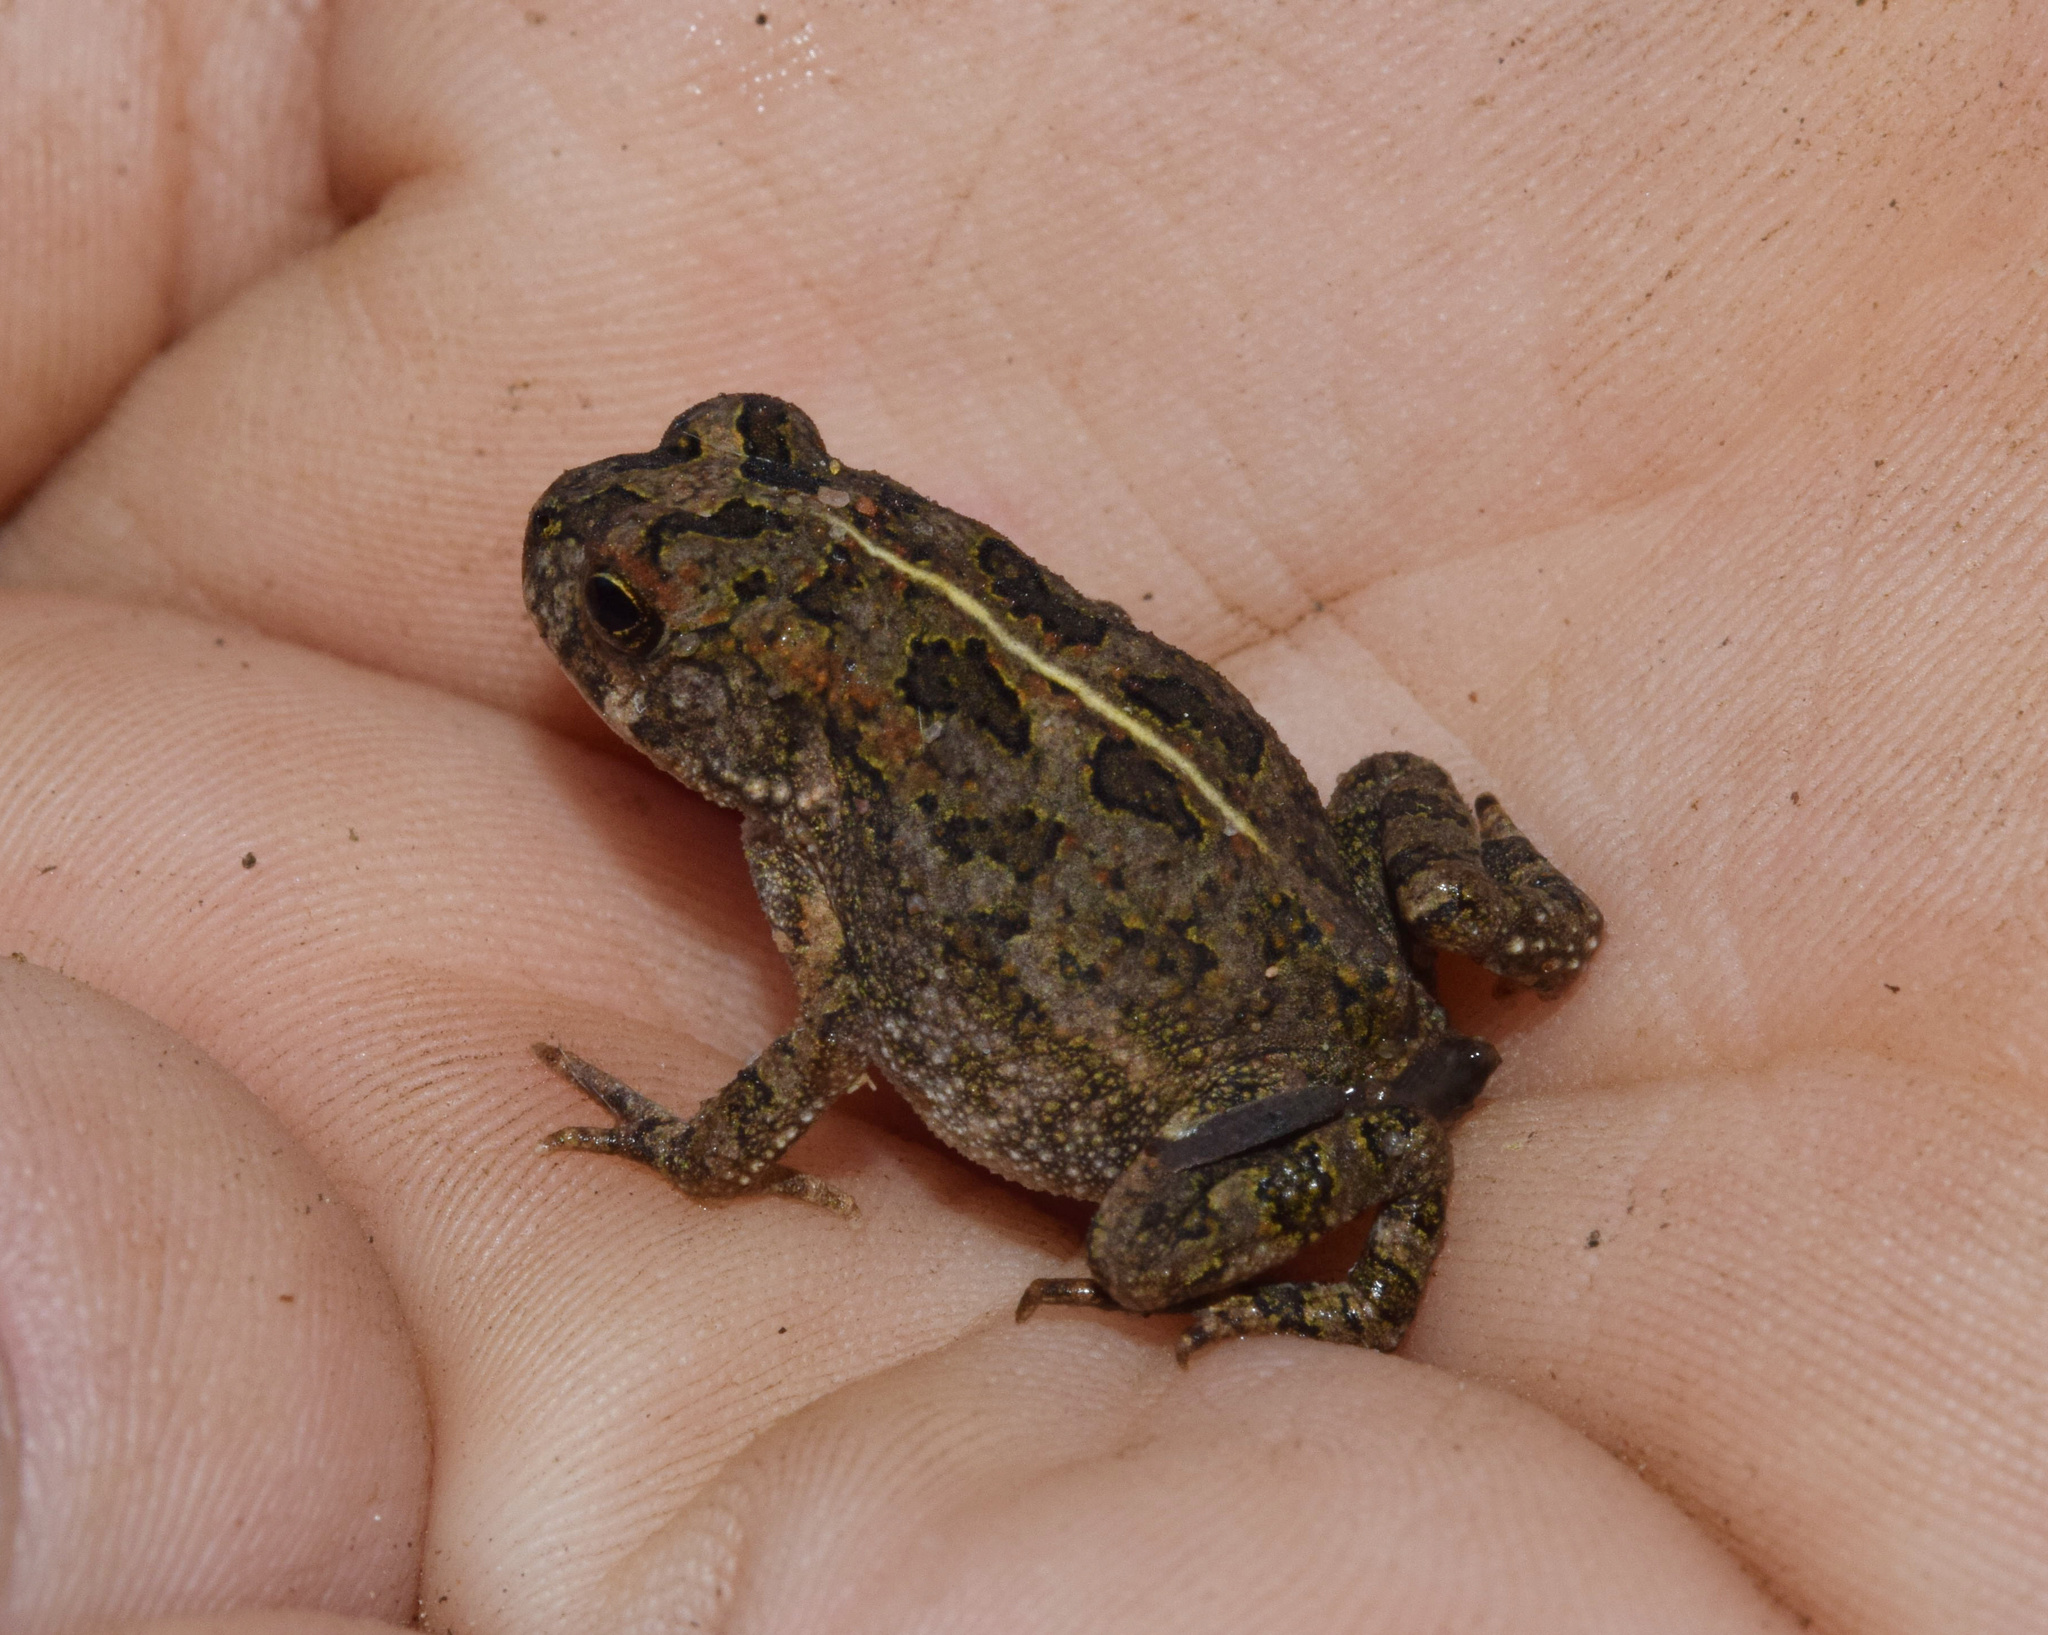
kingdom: Animalia
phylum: Chordata
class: Amphibia
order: Anura
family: Bufonidae
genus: Sclerophrys
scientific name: Sclerophrys gutturalis
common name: African common toad
